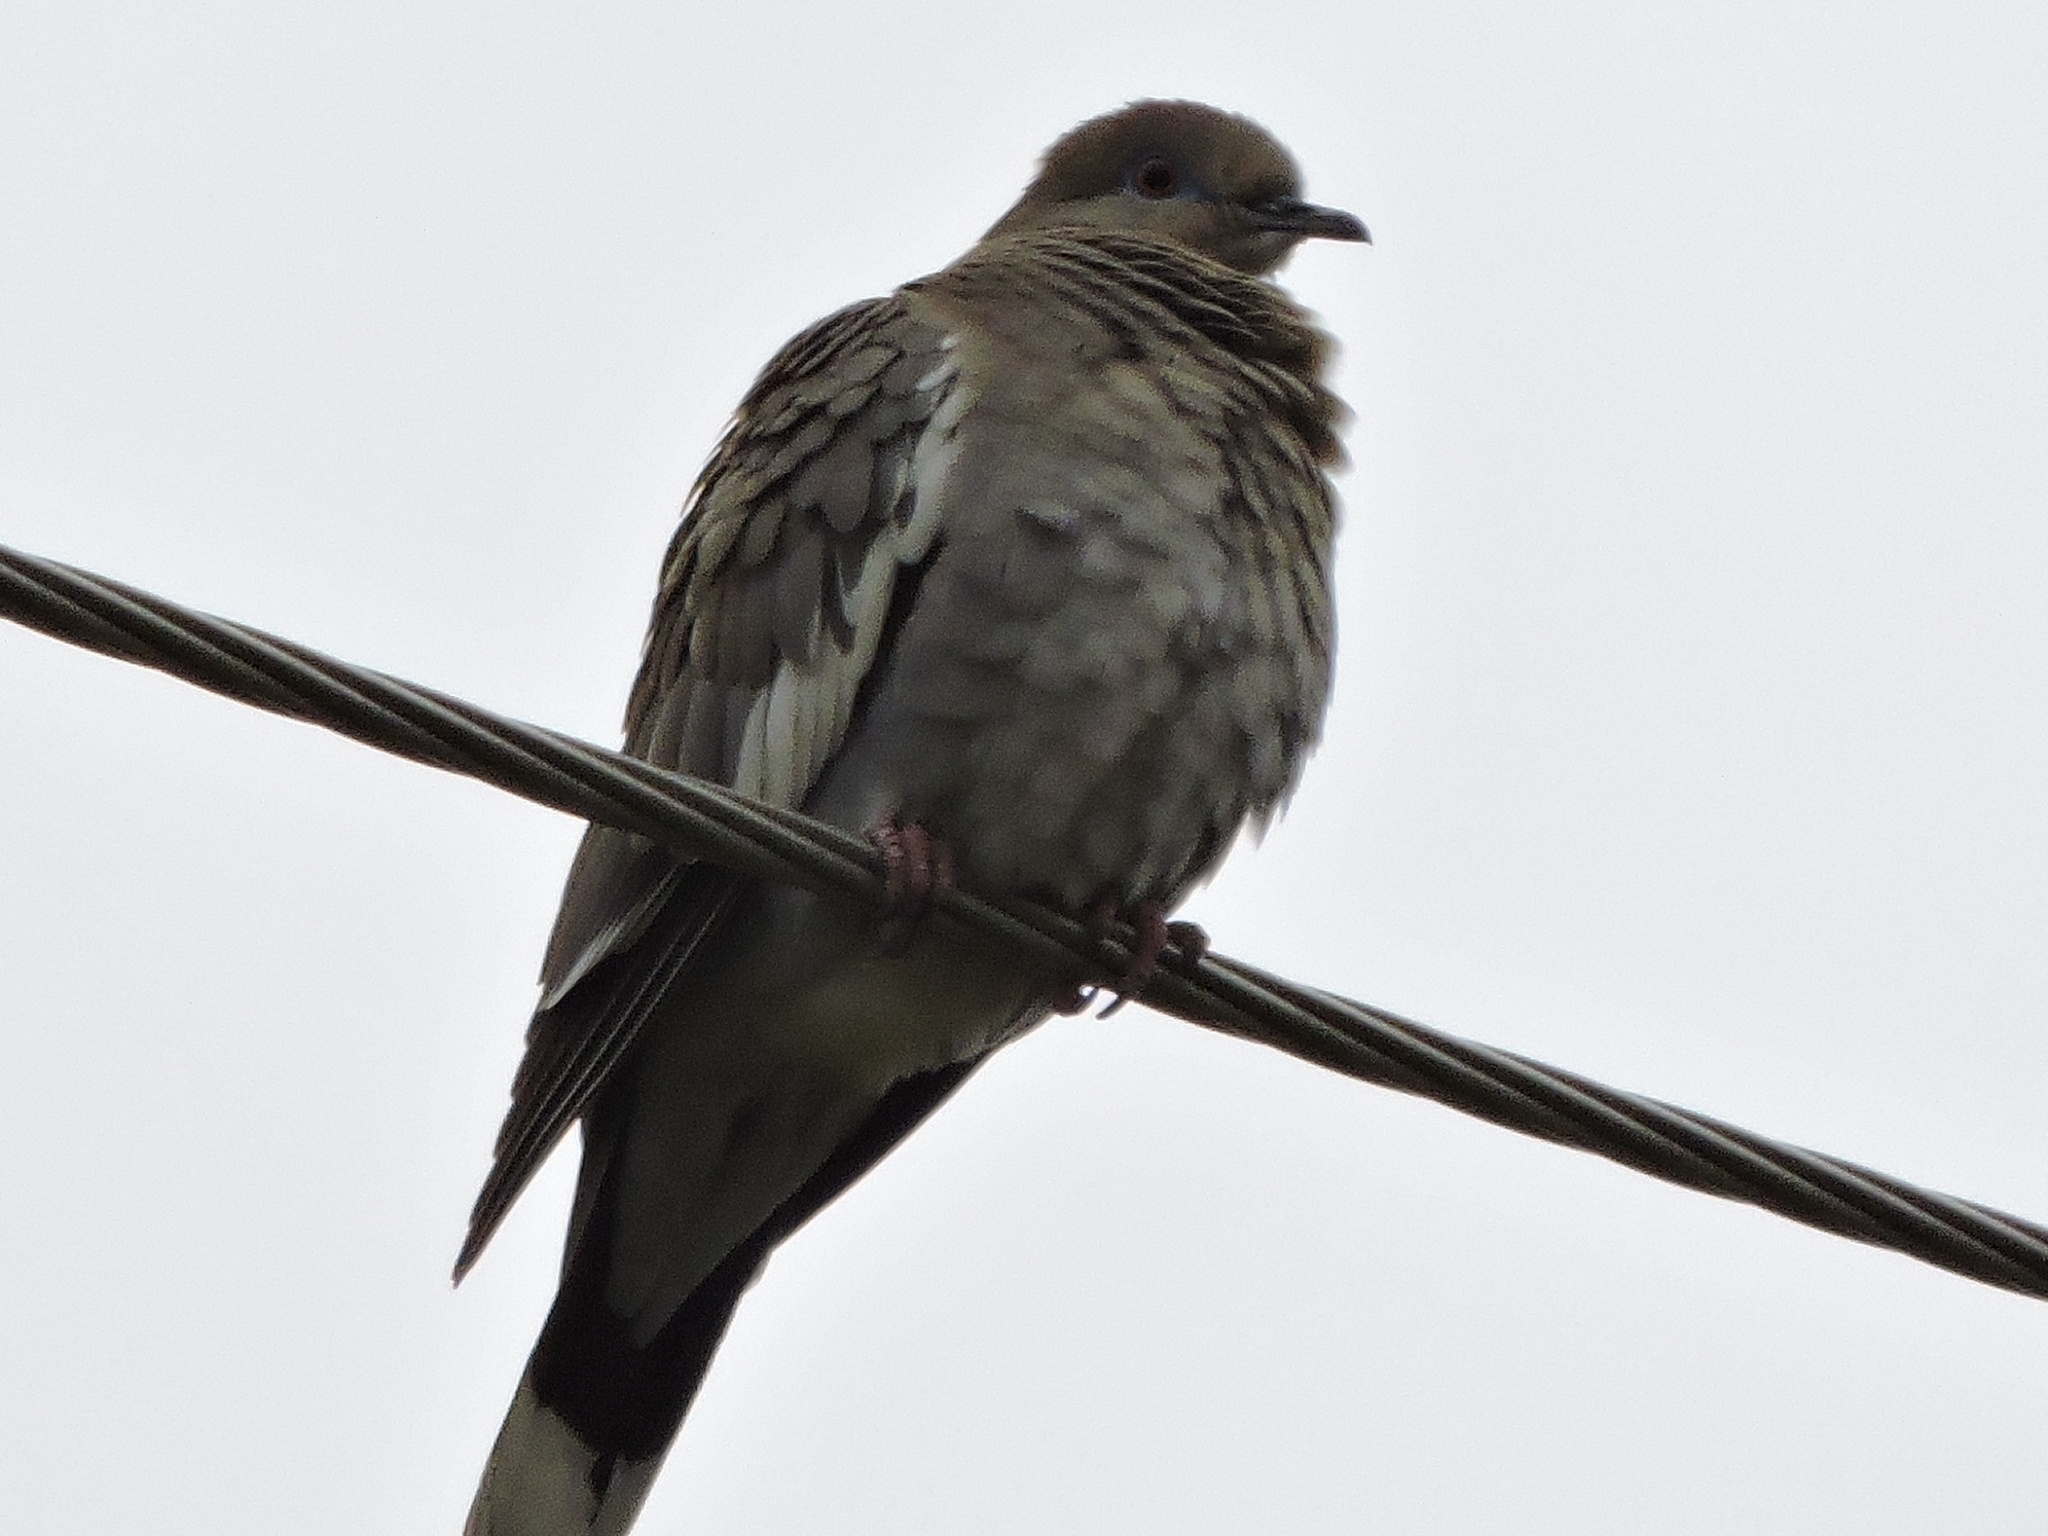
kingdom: Animalia
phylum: Chordata
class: Aves
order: Columbiformes
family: Columbidae
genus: Zenaida
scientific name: Zenaida asiatica
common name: White-winged dove
